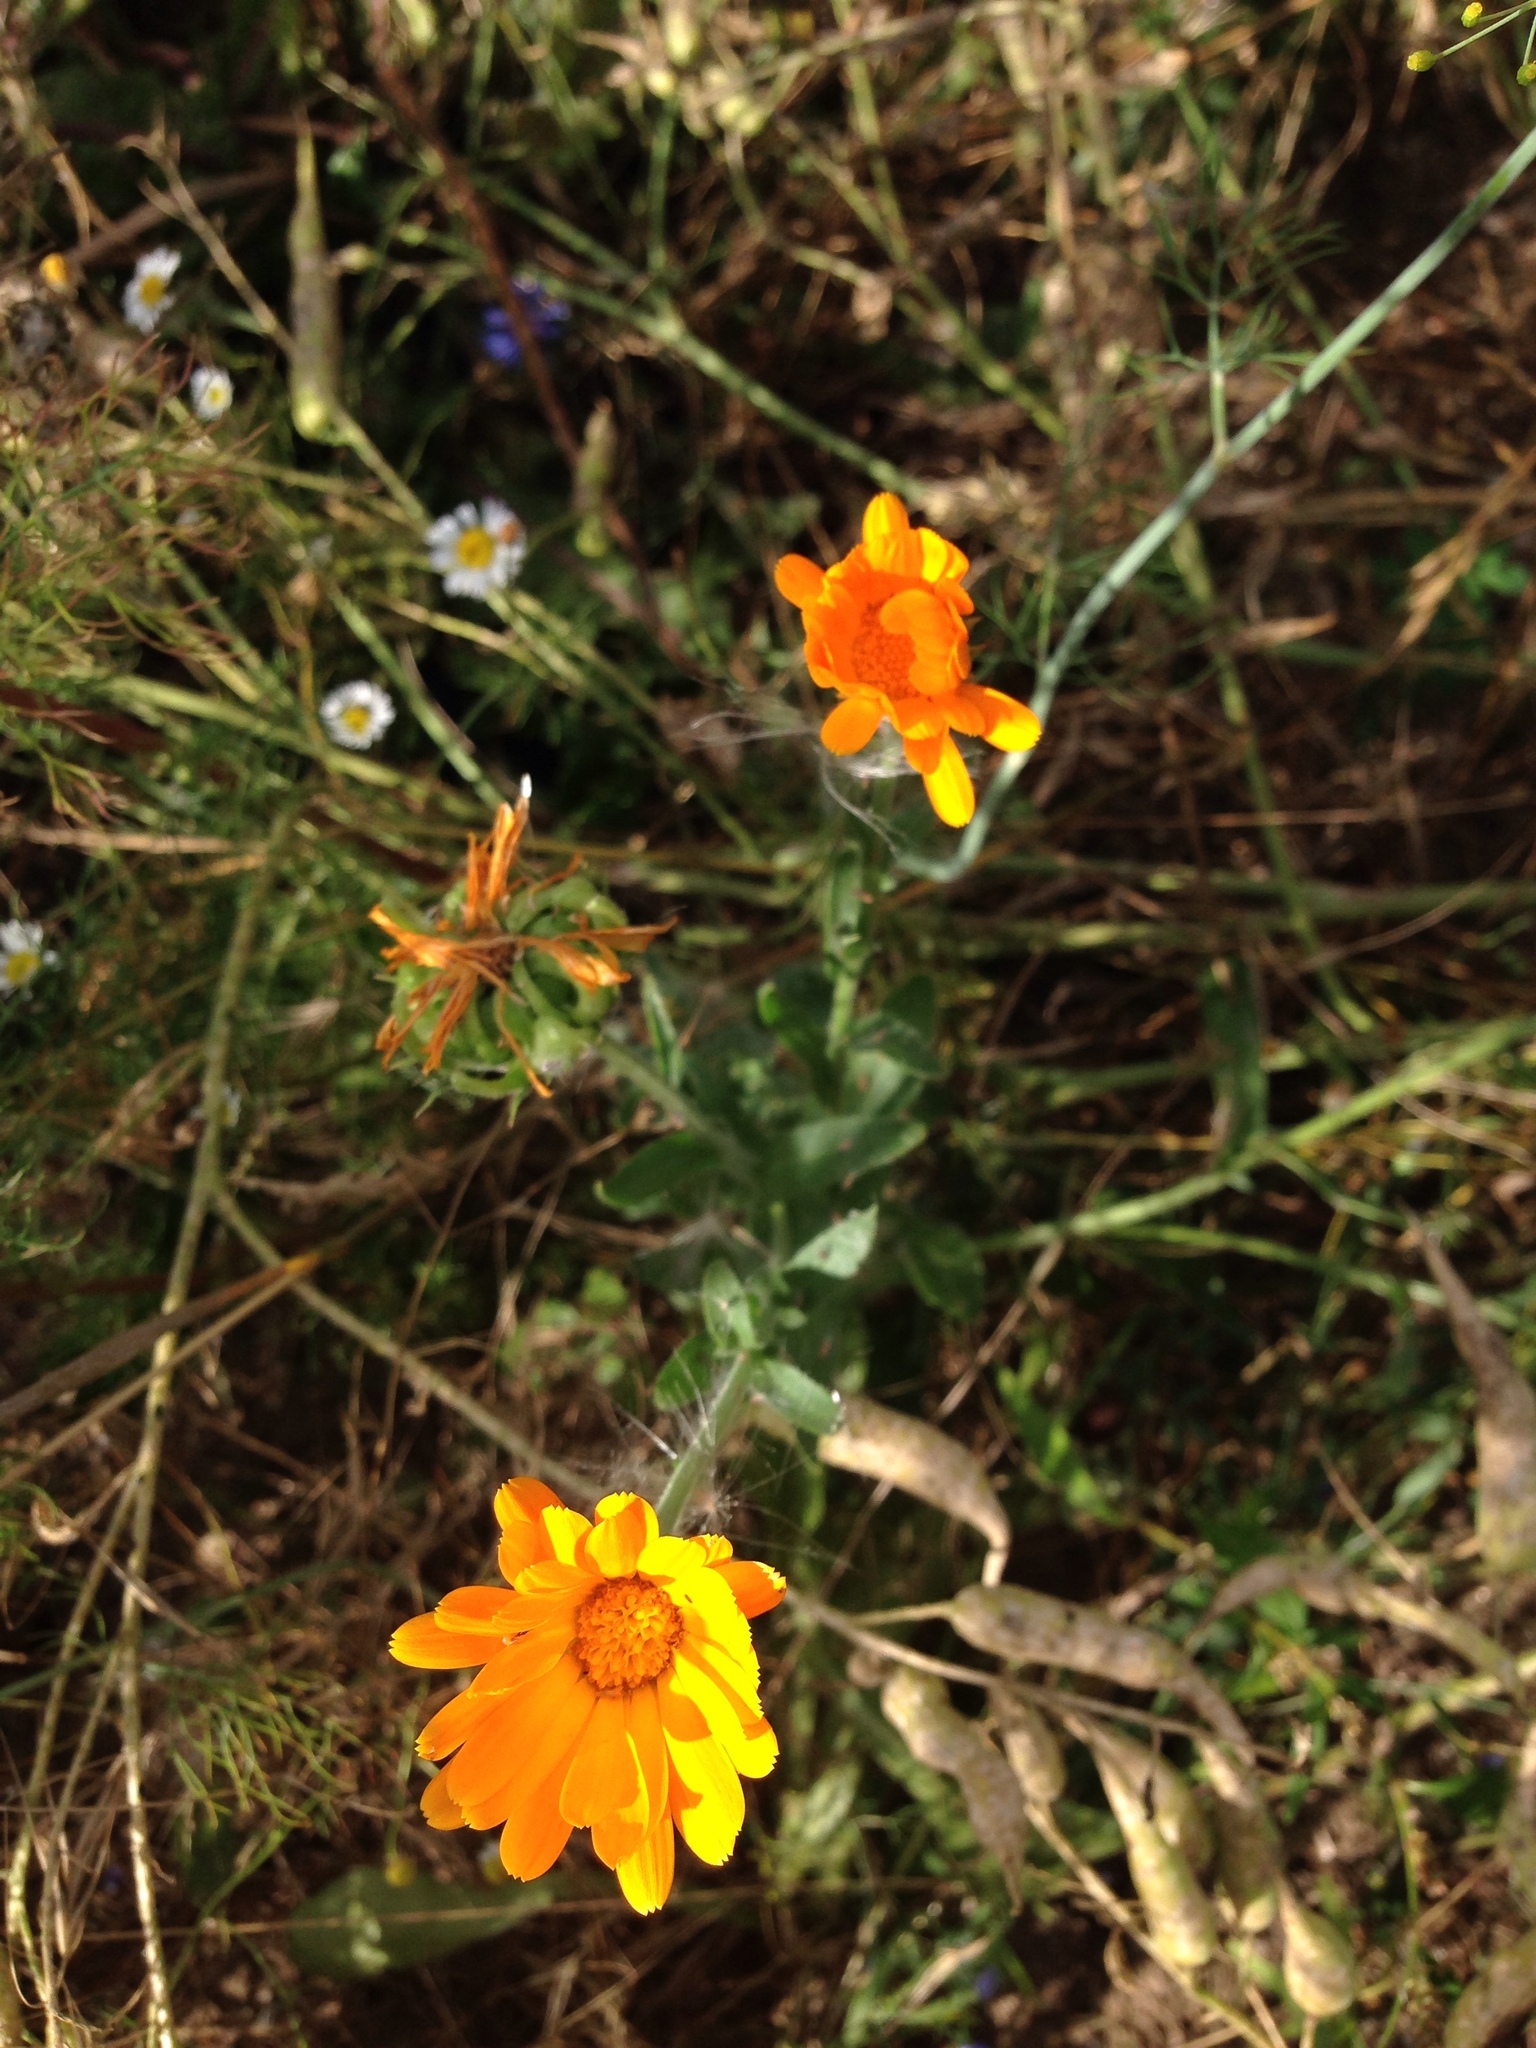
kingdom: Plantae
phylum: Tracheophyta
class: Magnoliopsida
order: Asterales
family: Asteraceae
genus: Calendula
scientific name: Calendula officinalis
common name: Pot marigold
